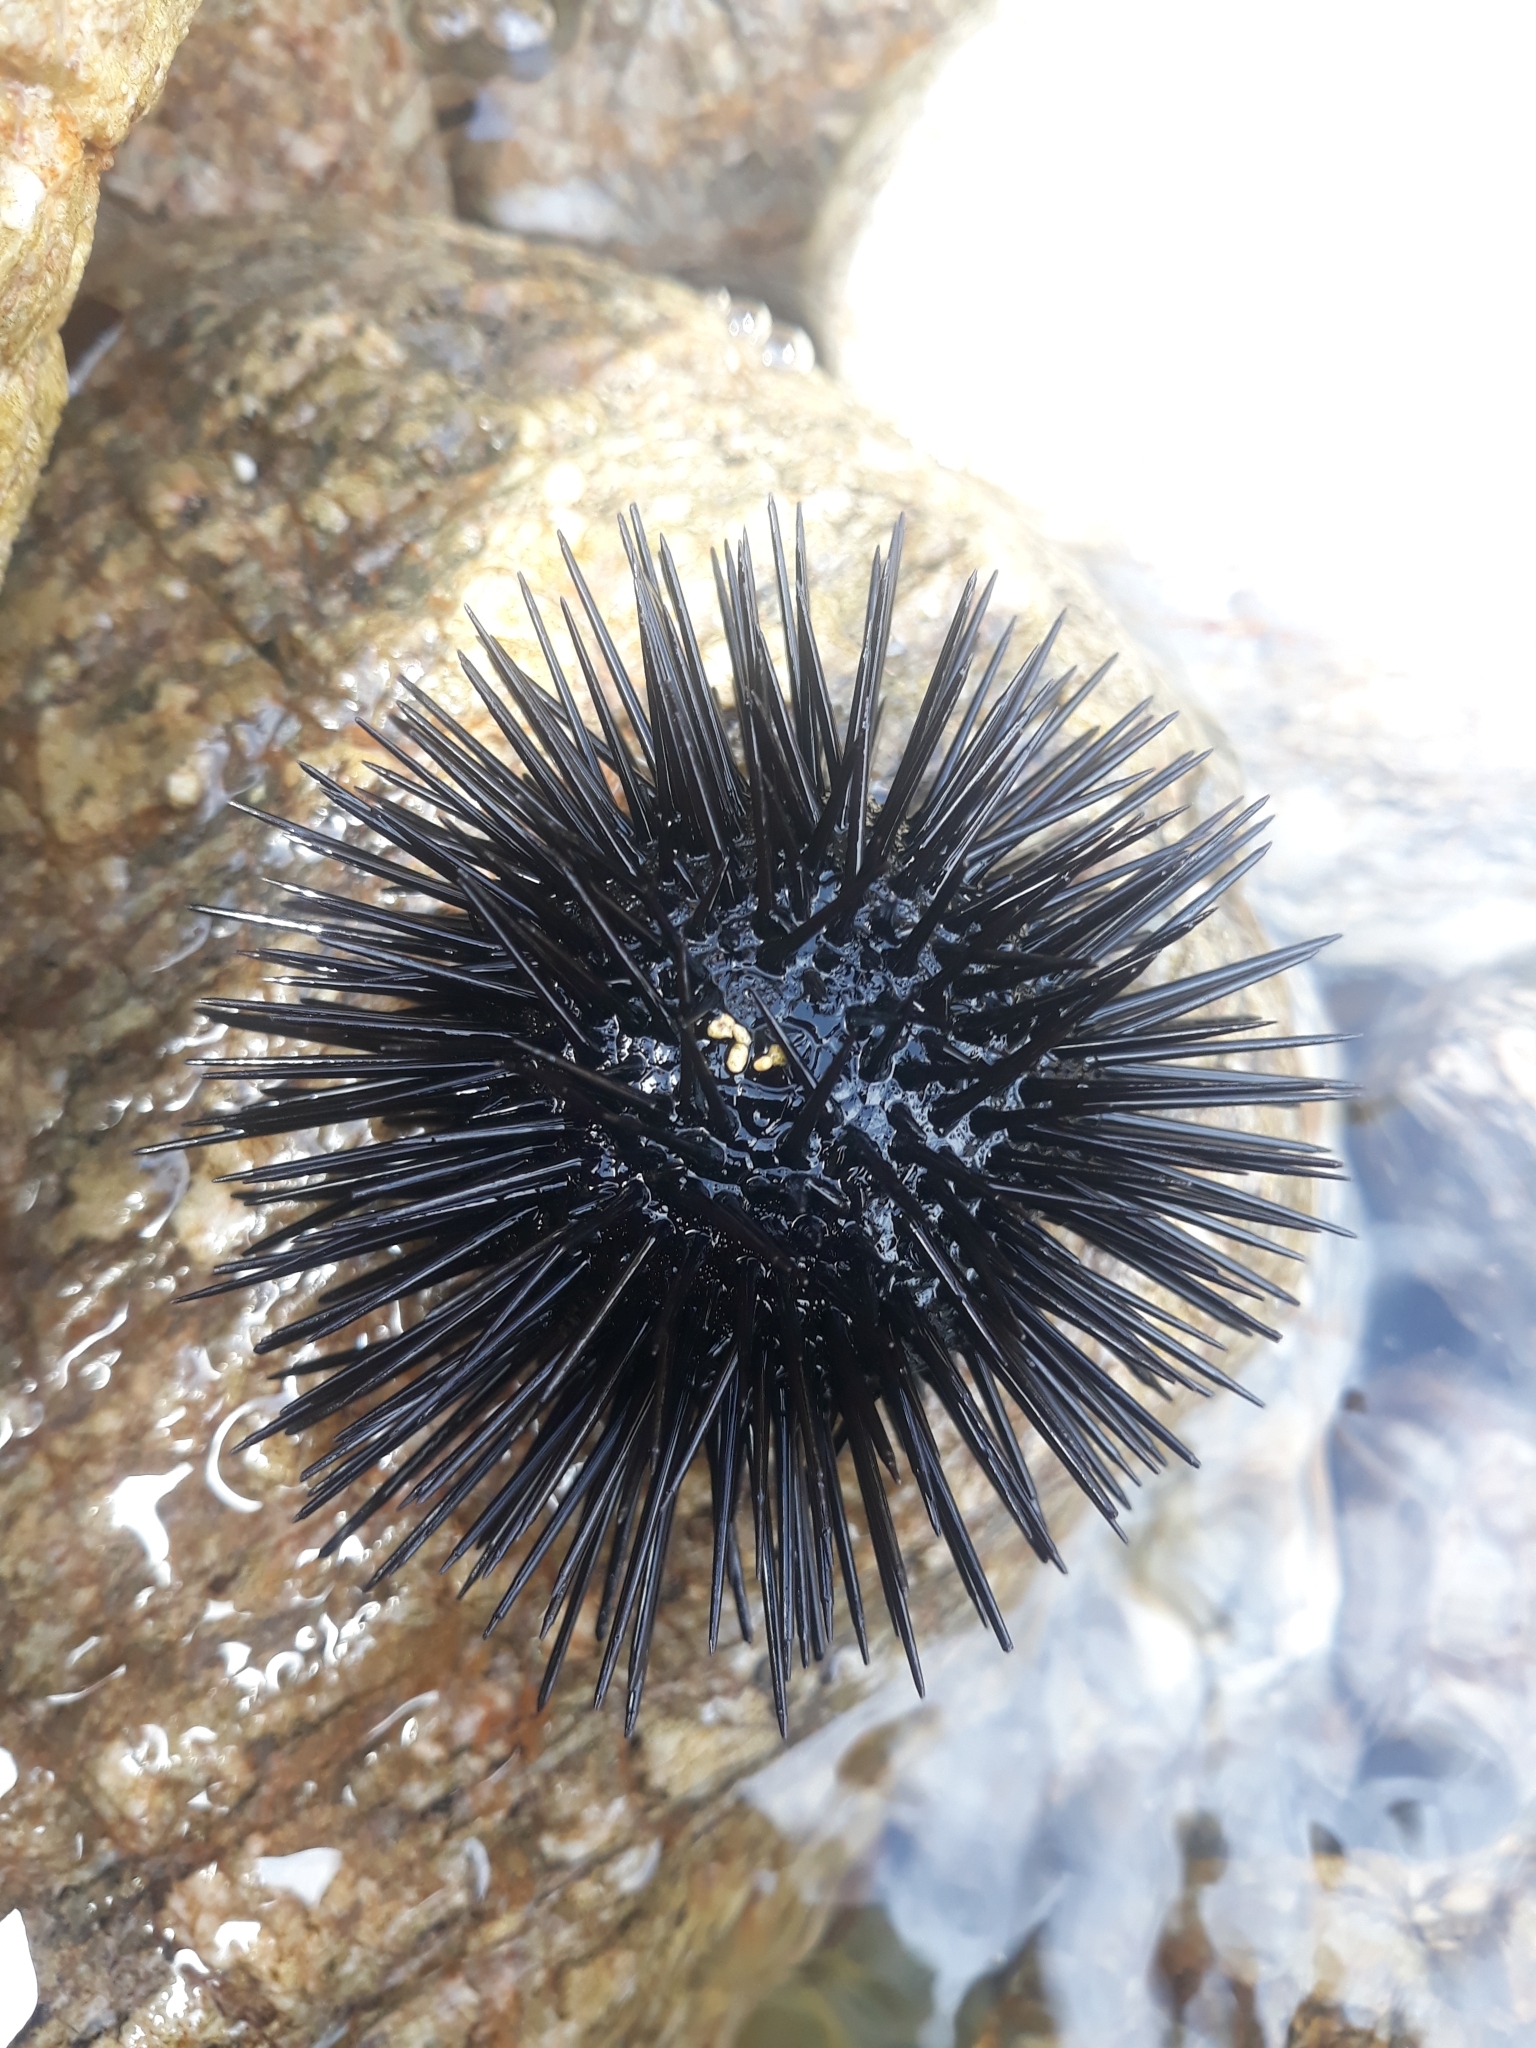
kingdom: Animalia
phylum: Echinodermata
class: Echinoidea
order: Arbacioida
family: Arbaciidae
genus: Arbacia
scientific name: Arbacia lixula
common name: Black sea urchin
